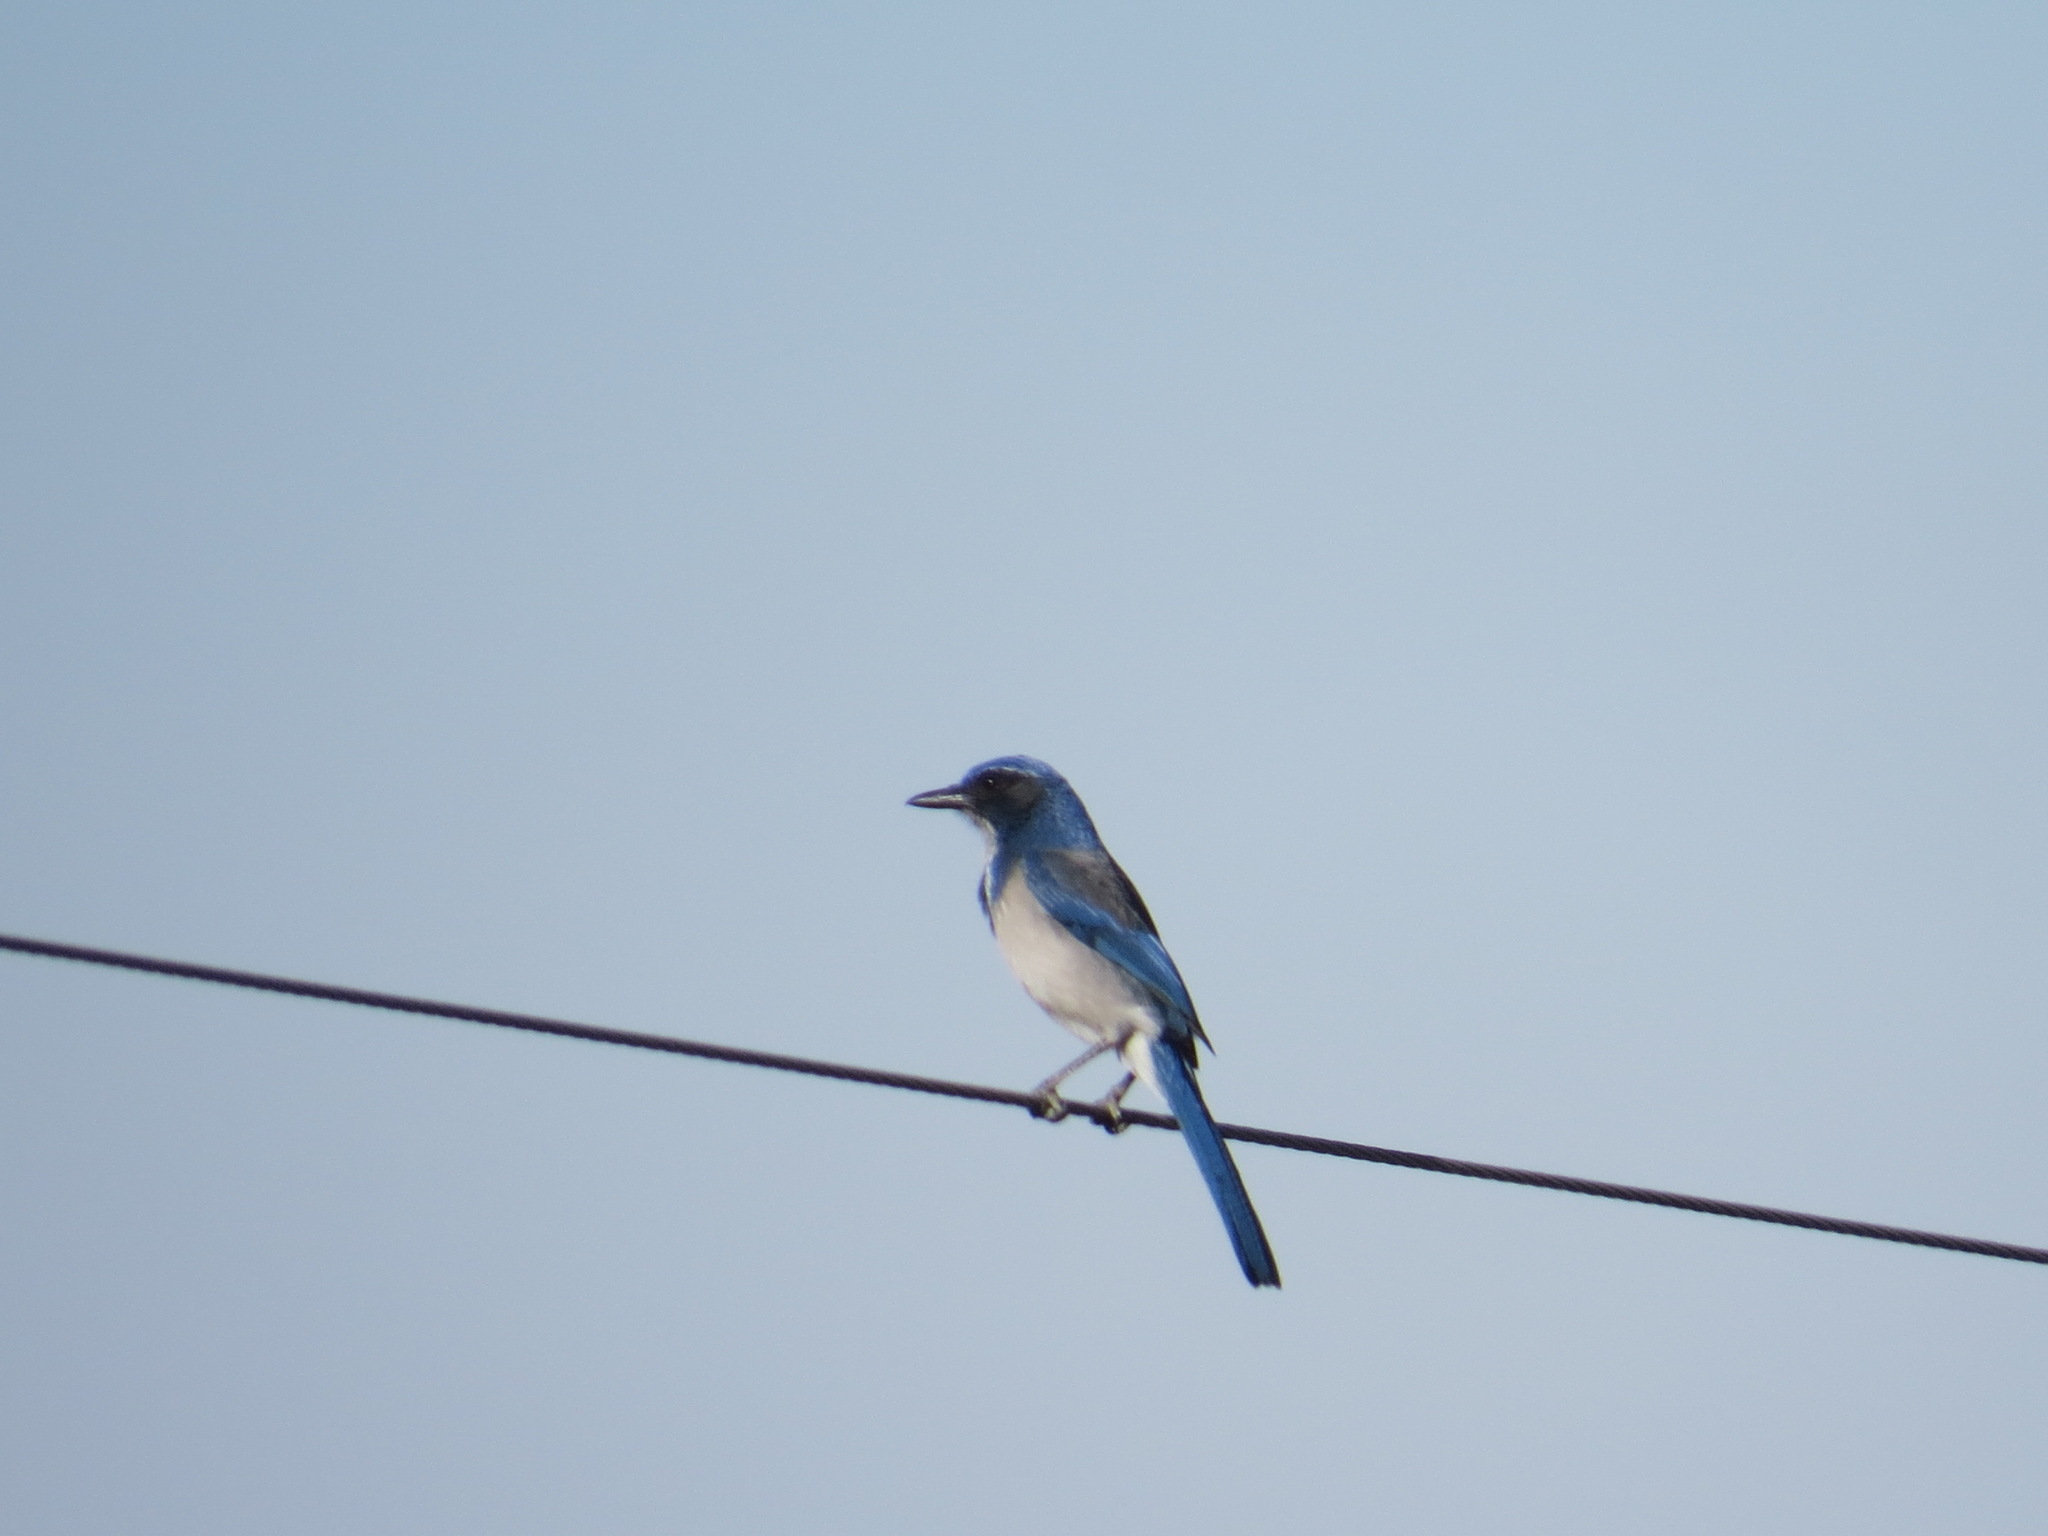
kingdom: Animalia
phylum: Chordata
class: Aves
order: Passeriformes
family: Corvidae
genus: Aphelocoma
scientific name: Aphelocoma californica
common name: California scrub-jay
